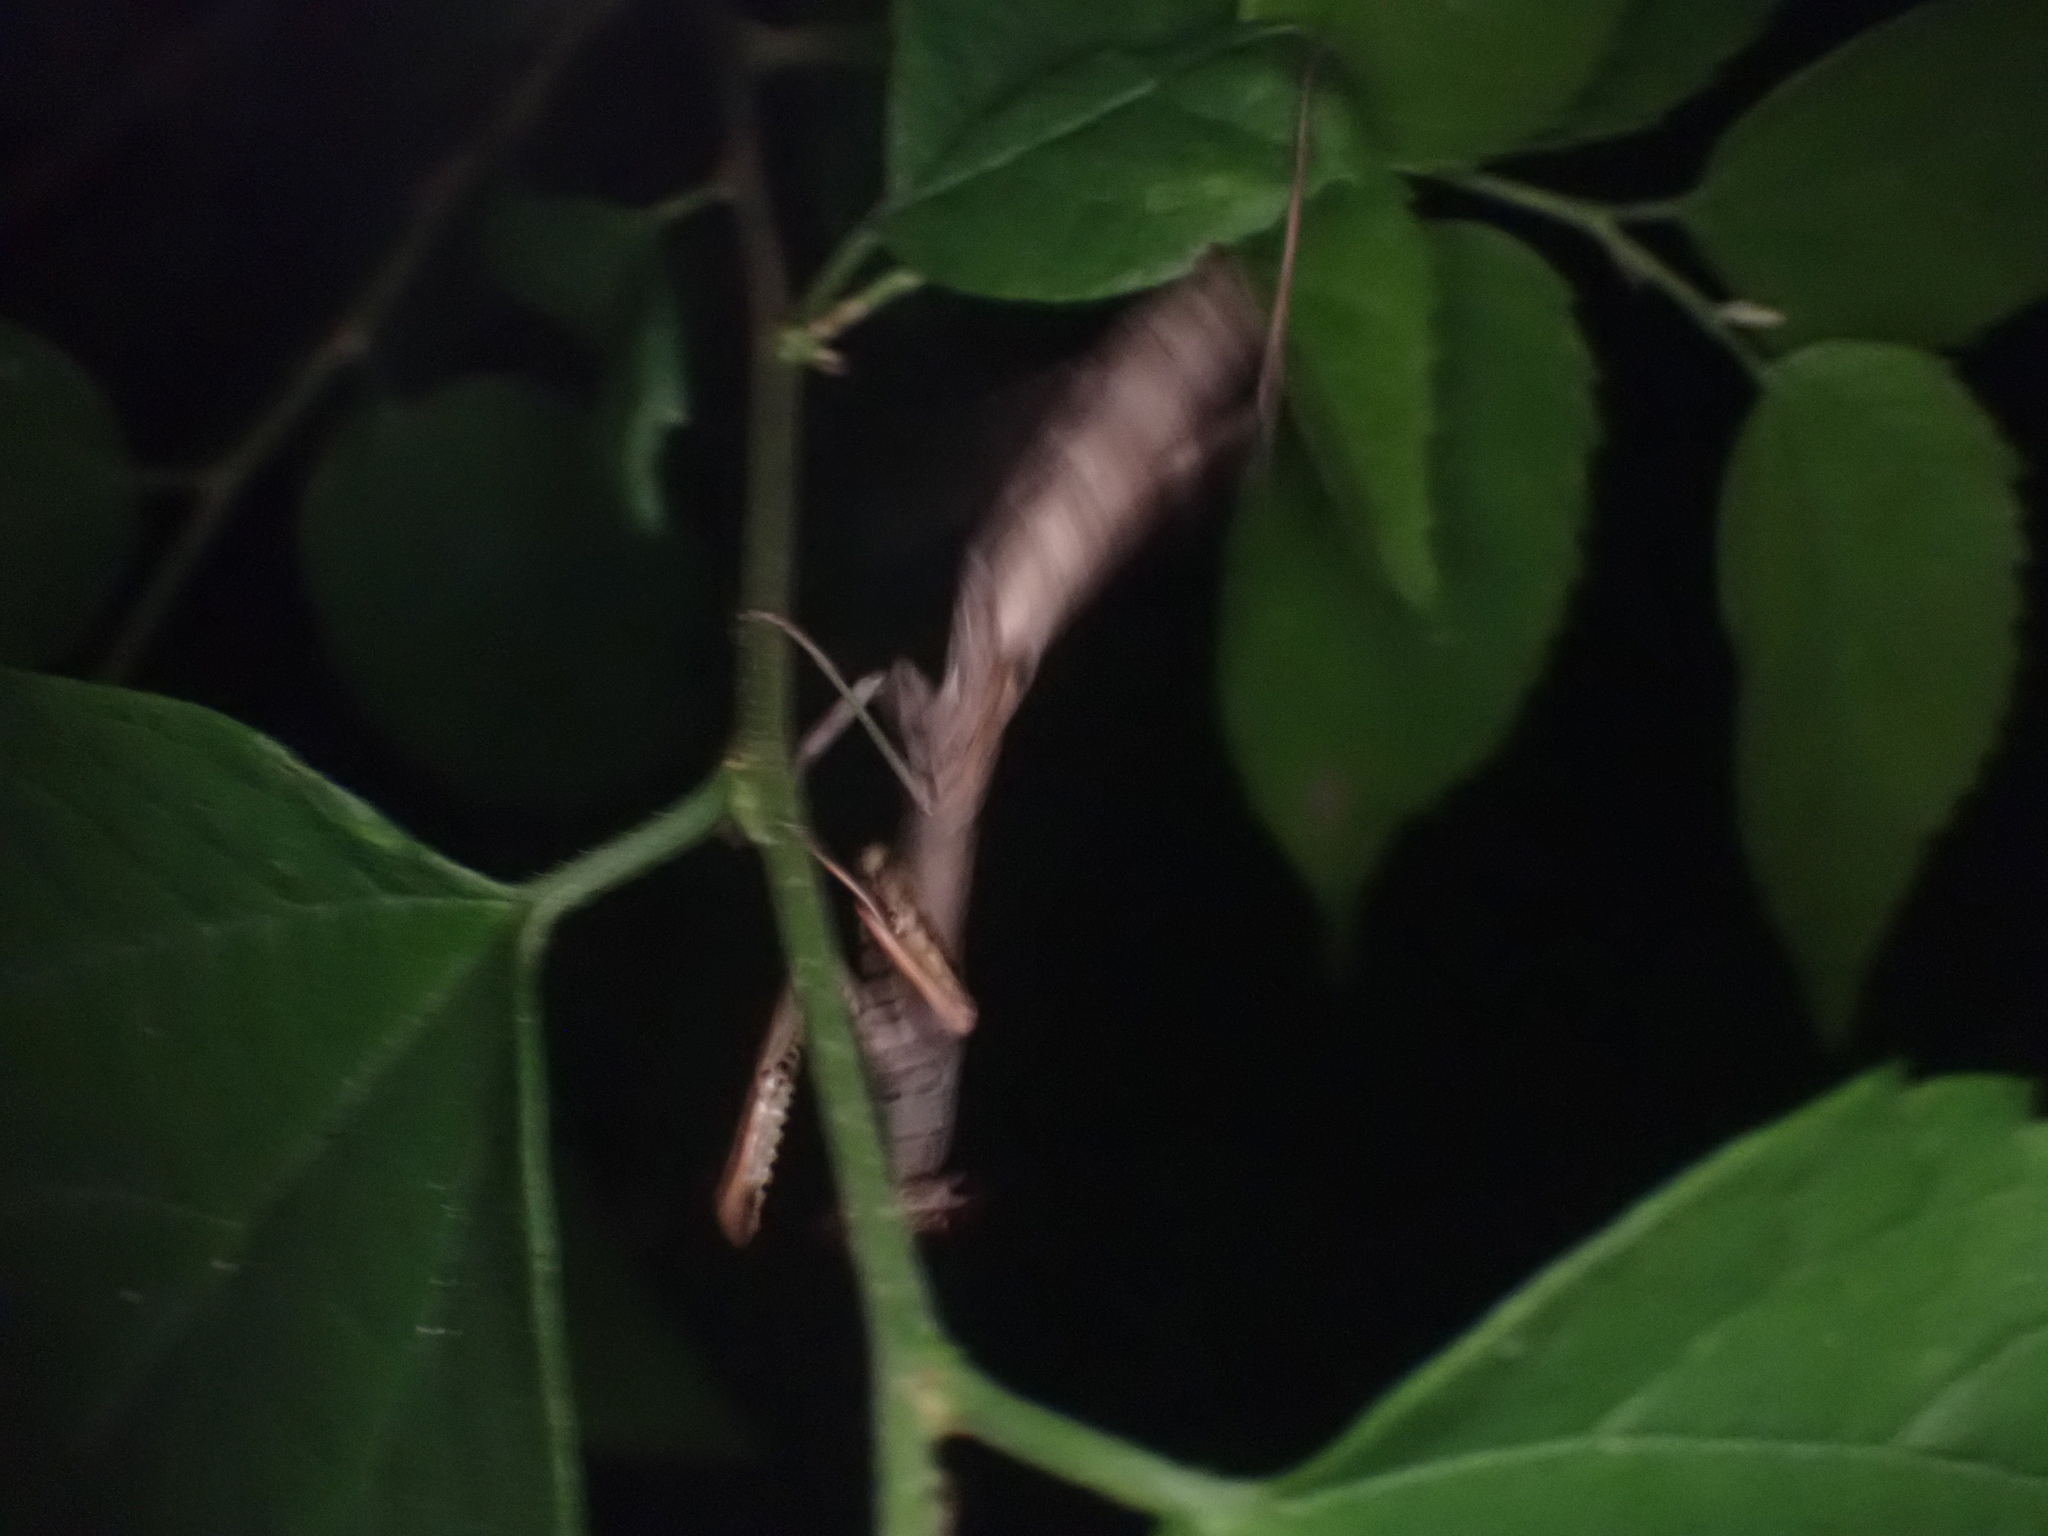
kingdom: Animalia
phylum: Arthropoda
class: Insecta
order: Mantodea
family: Mantidae
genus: Stagmomantis
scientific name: Stagmomantis carolina
